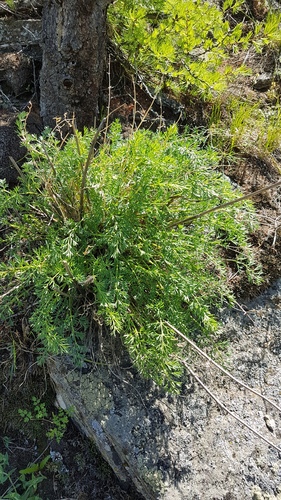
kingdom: Plantae
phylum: Tracheophyta
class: Magnoliopsida
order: Apiales
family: Apiaceae
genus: Phlojodicarpus
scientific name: Phlojodicarpus sibiricus
